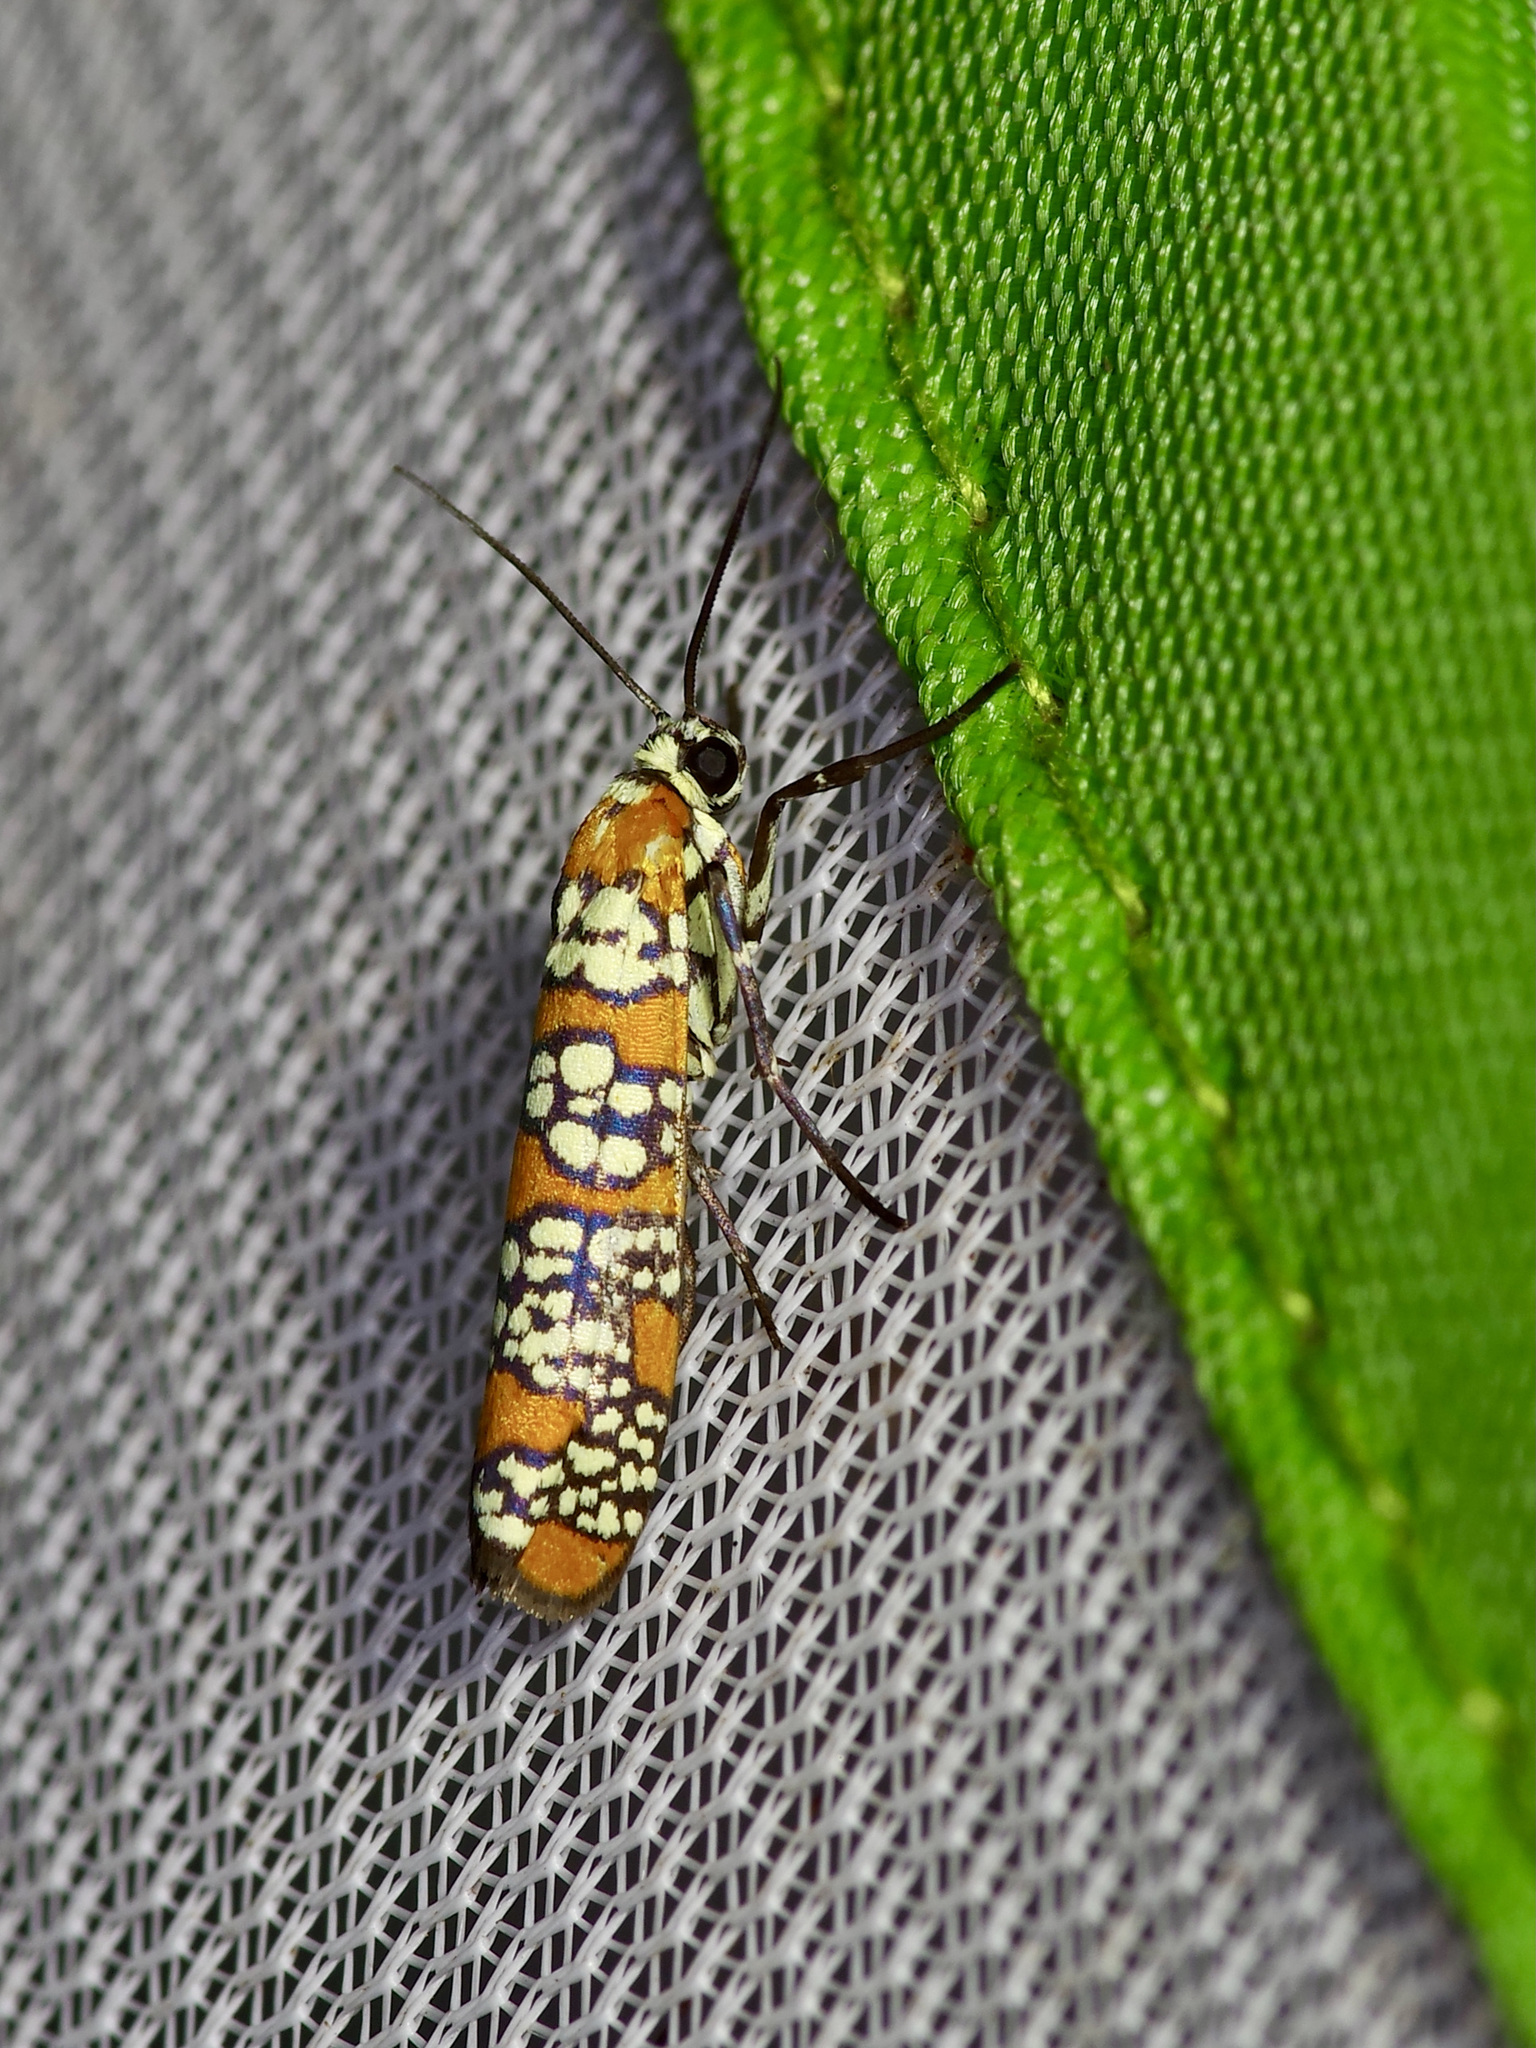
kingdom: Animalia
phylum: Arthropoda
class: Insecta
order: Lepidoptera
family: Attevidae
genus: Atteva
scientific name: Atteva punctella
